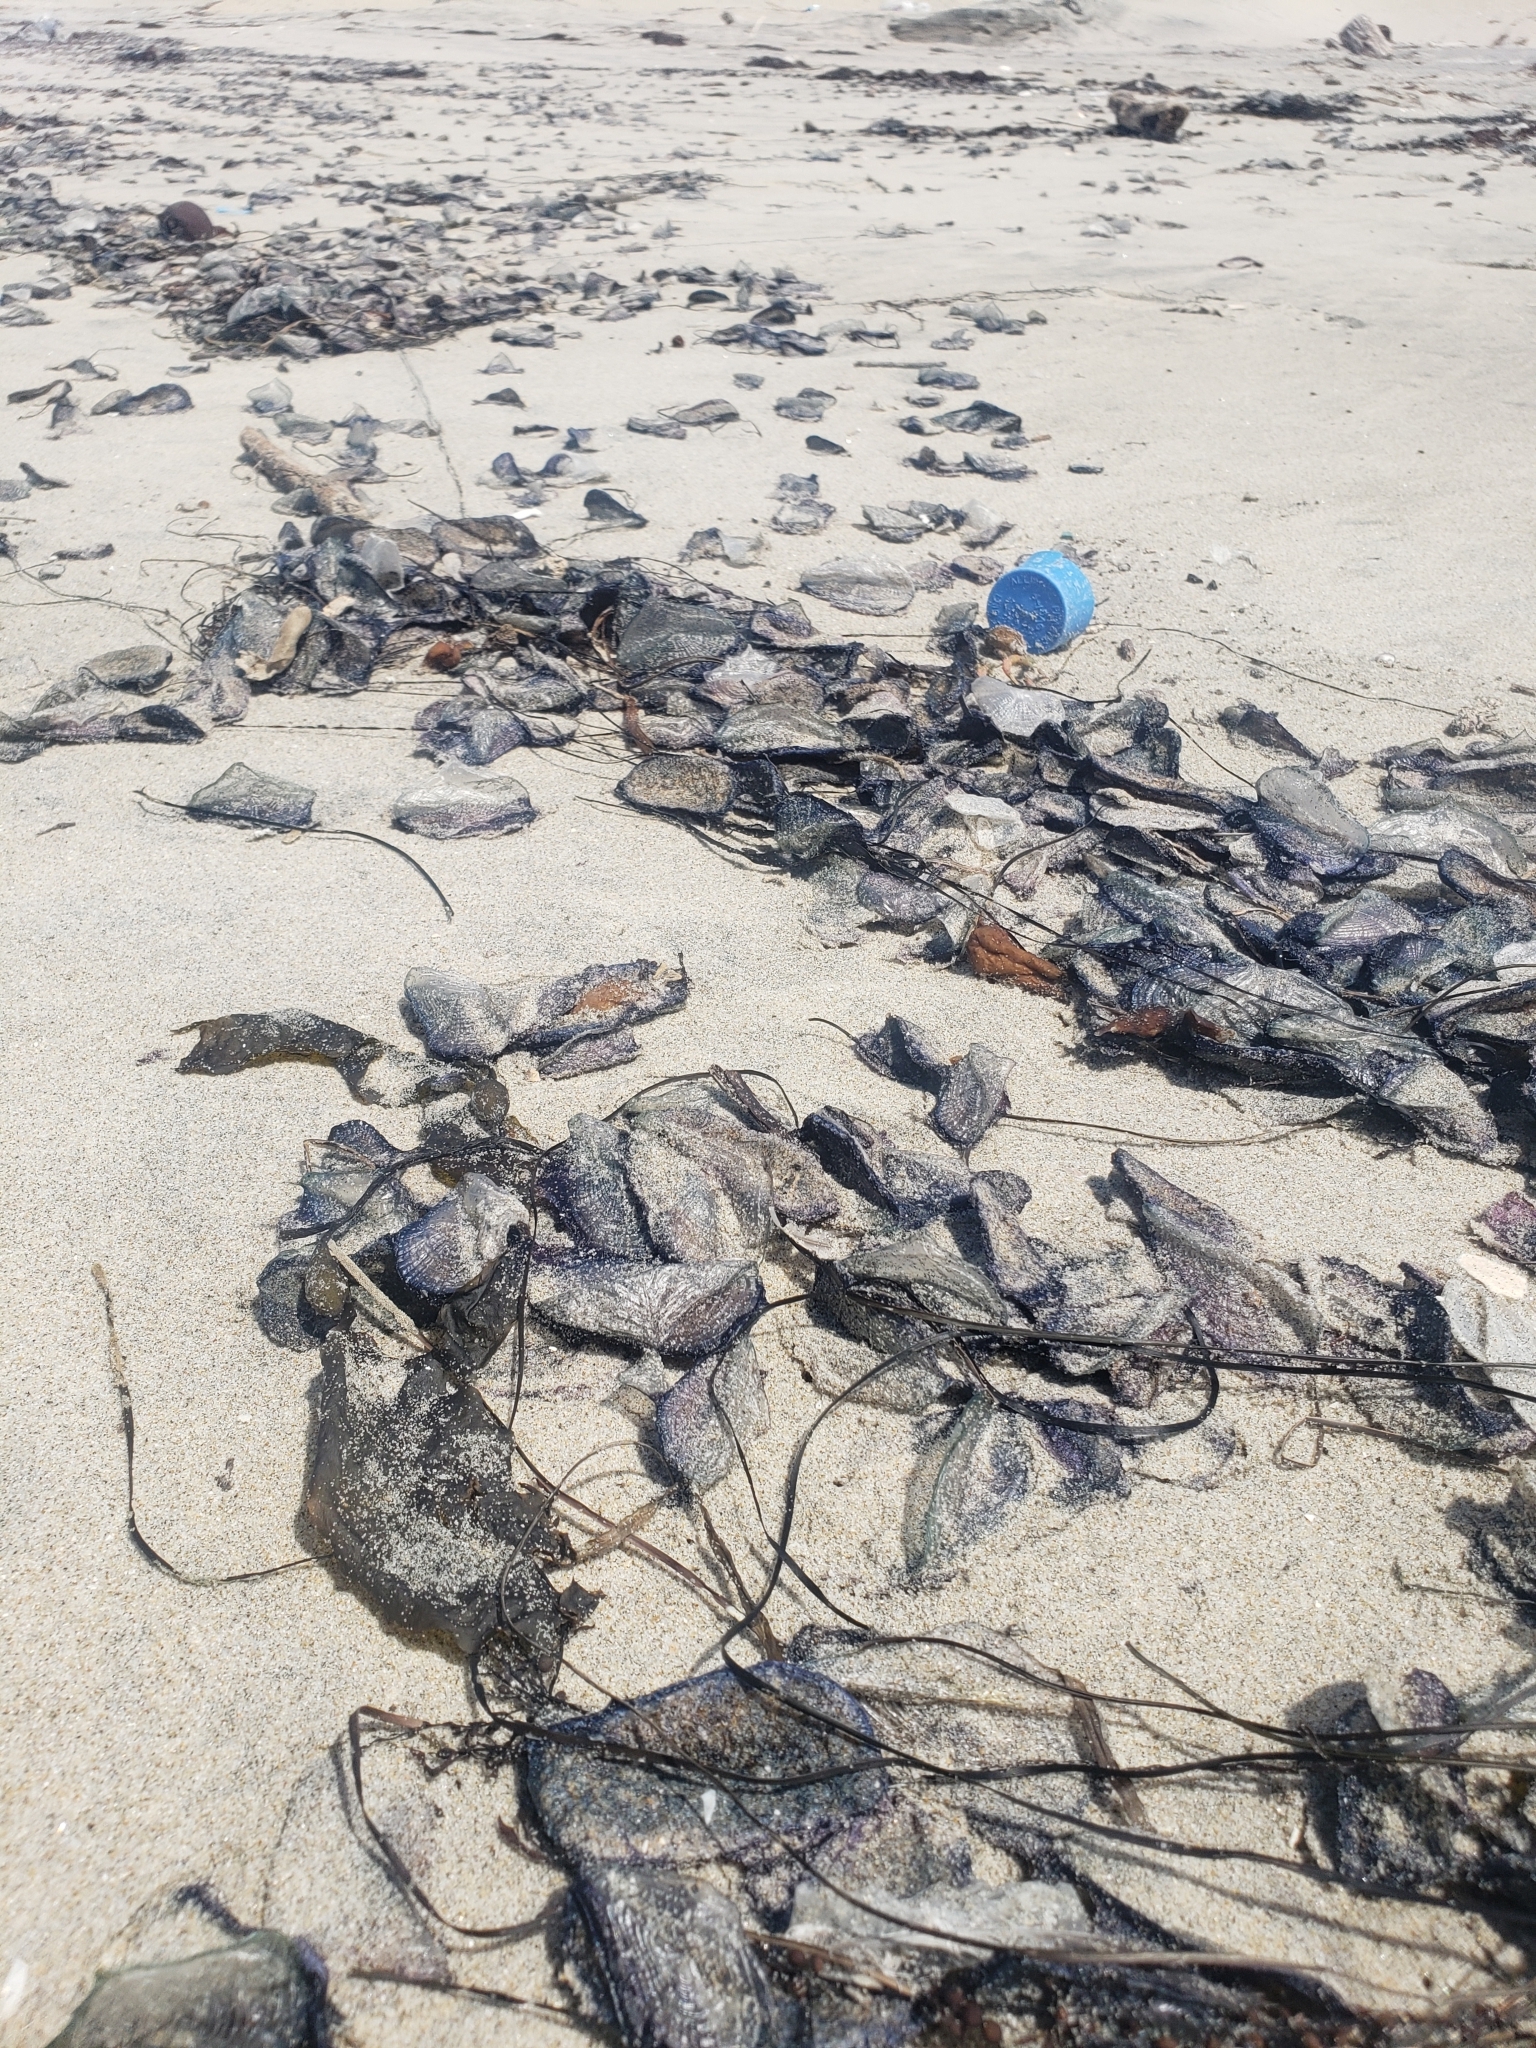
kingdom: Animalia
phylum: Cnidaria
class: Hydrozoa
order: Anthoathecata
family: Porpitidae
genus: Velella
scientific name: Velella velella
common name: By-the-wind-sailor
